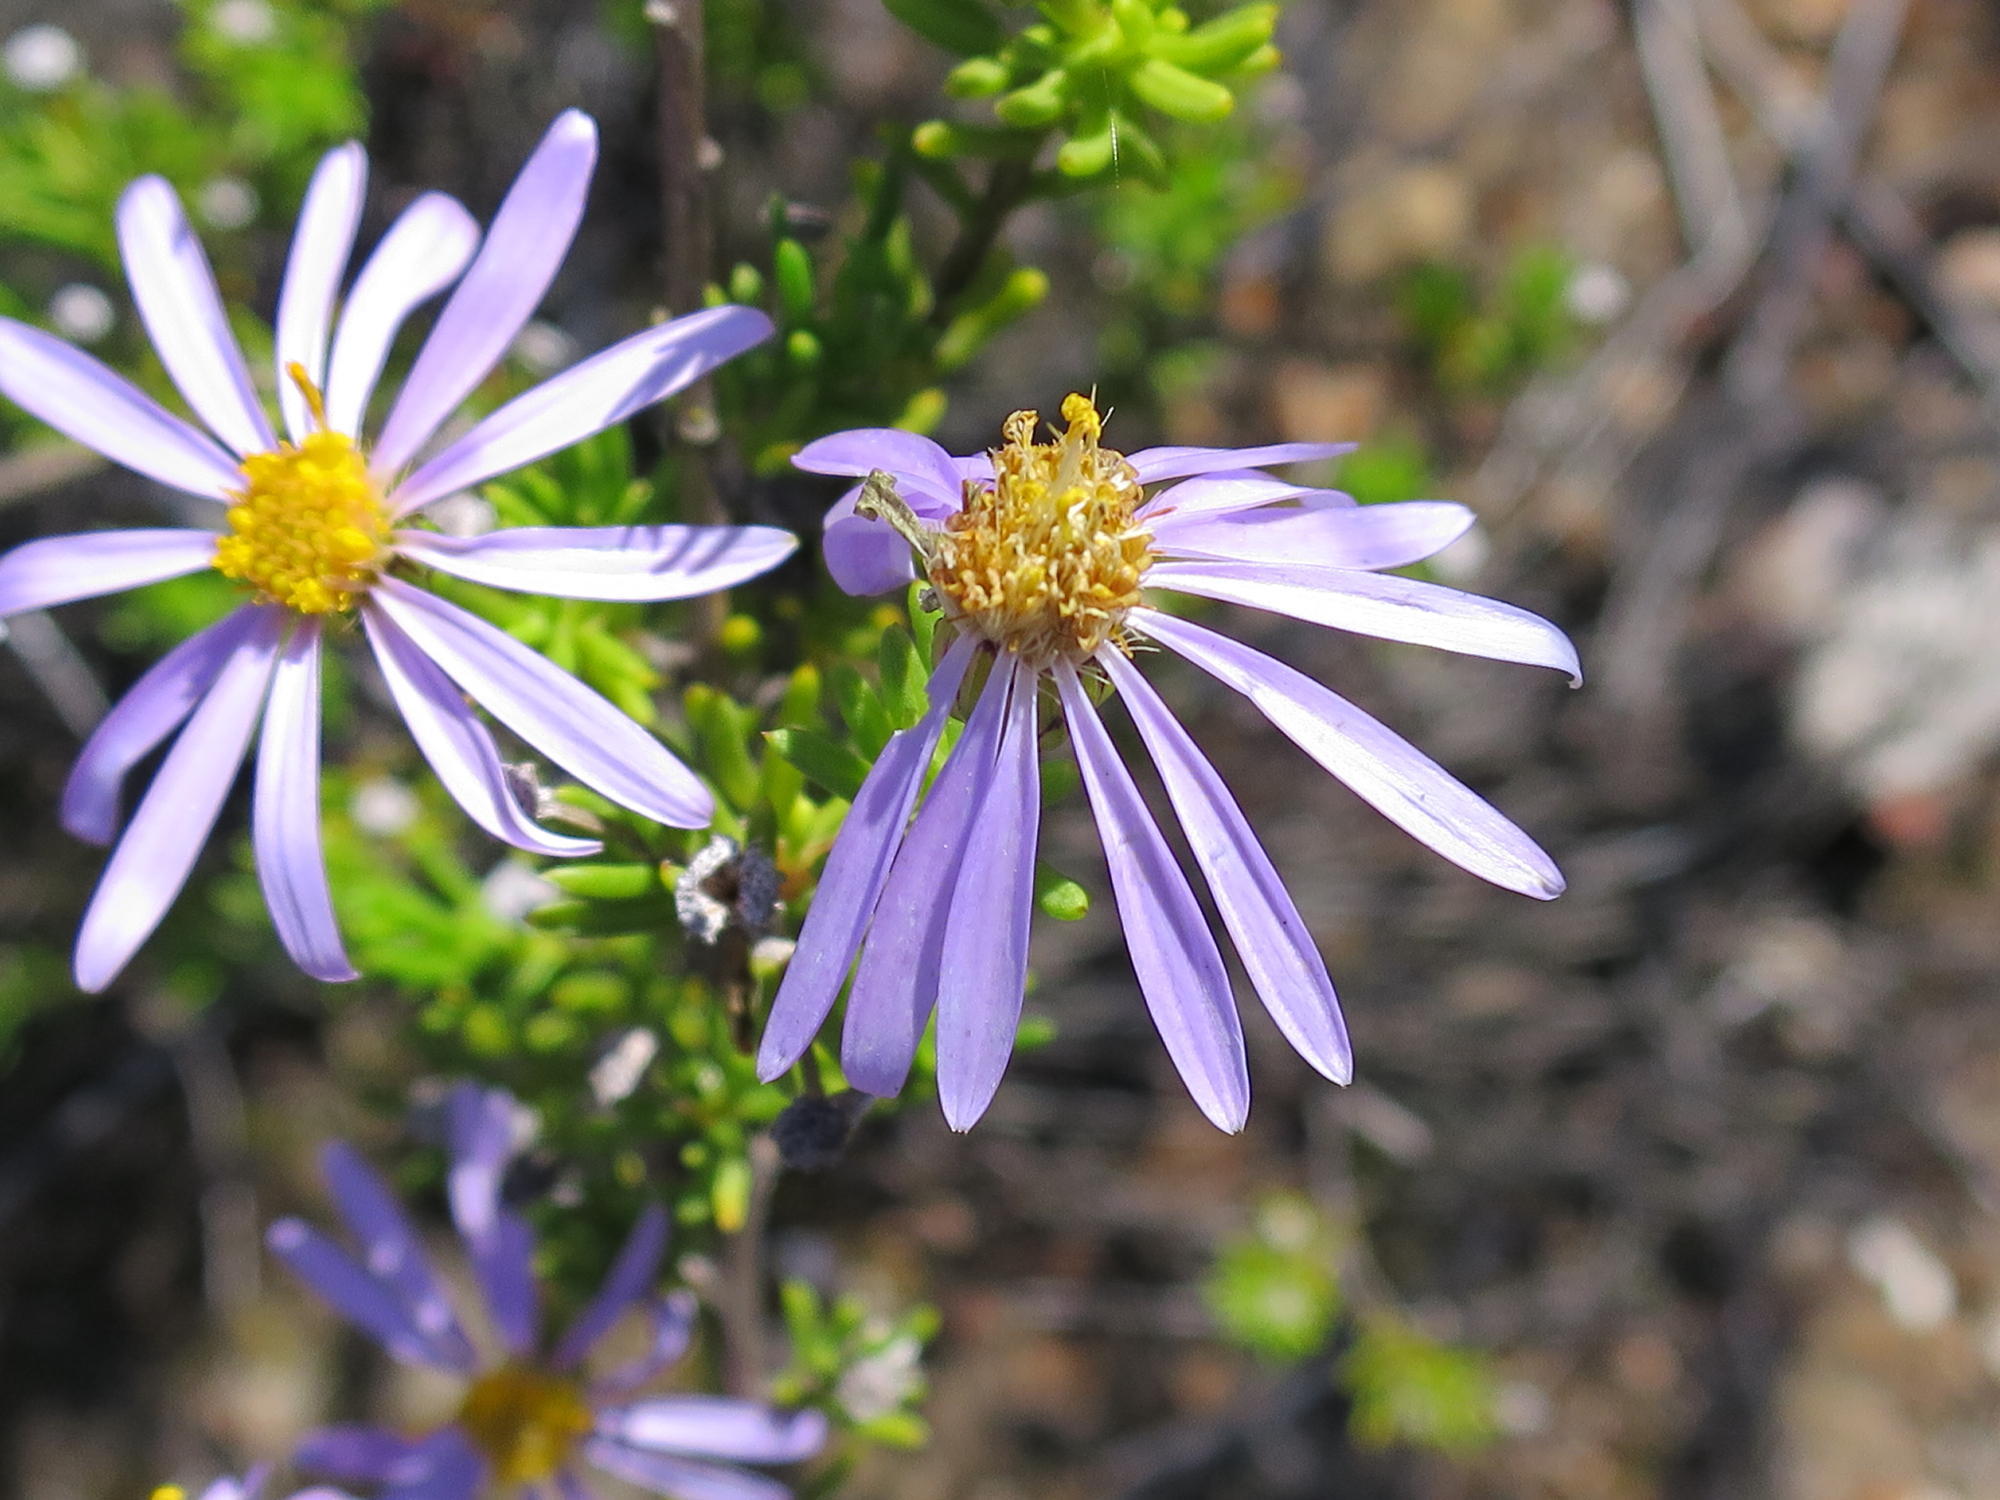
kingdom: Plantae
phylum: Tracheophyta
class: Magnoliopsida
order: Asterales
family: Asteraceae
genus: Felicia
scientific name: Felicia filifolia
